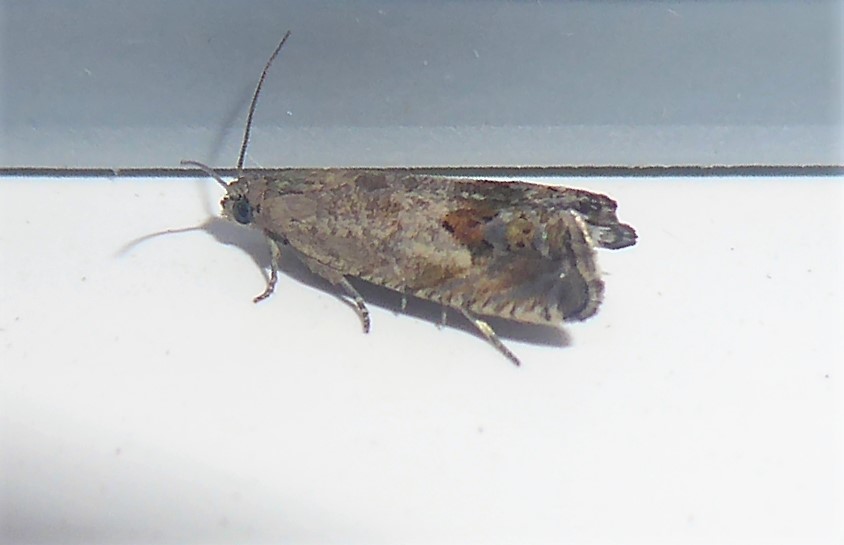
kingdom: Animalia
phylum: Arthropoda
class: Insecta
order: Lepidoptera
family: Tortricidae
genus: Cydia
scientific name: Cydia succedana
